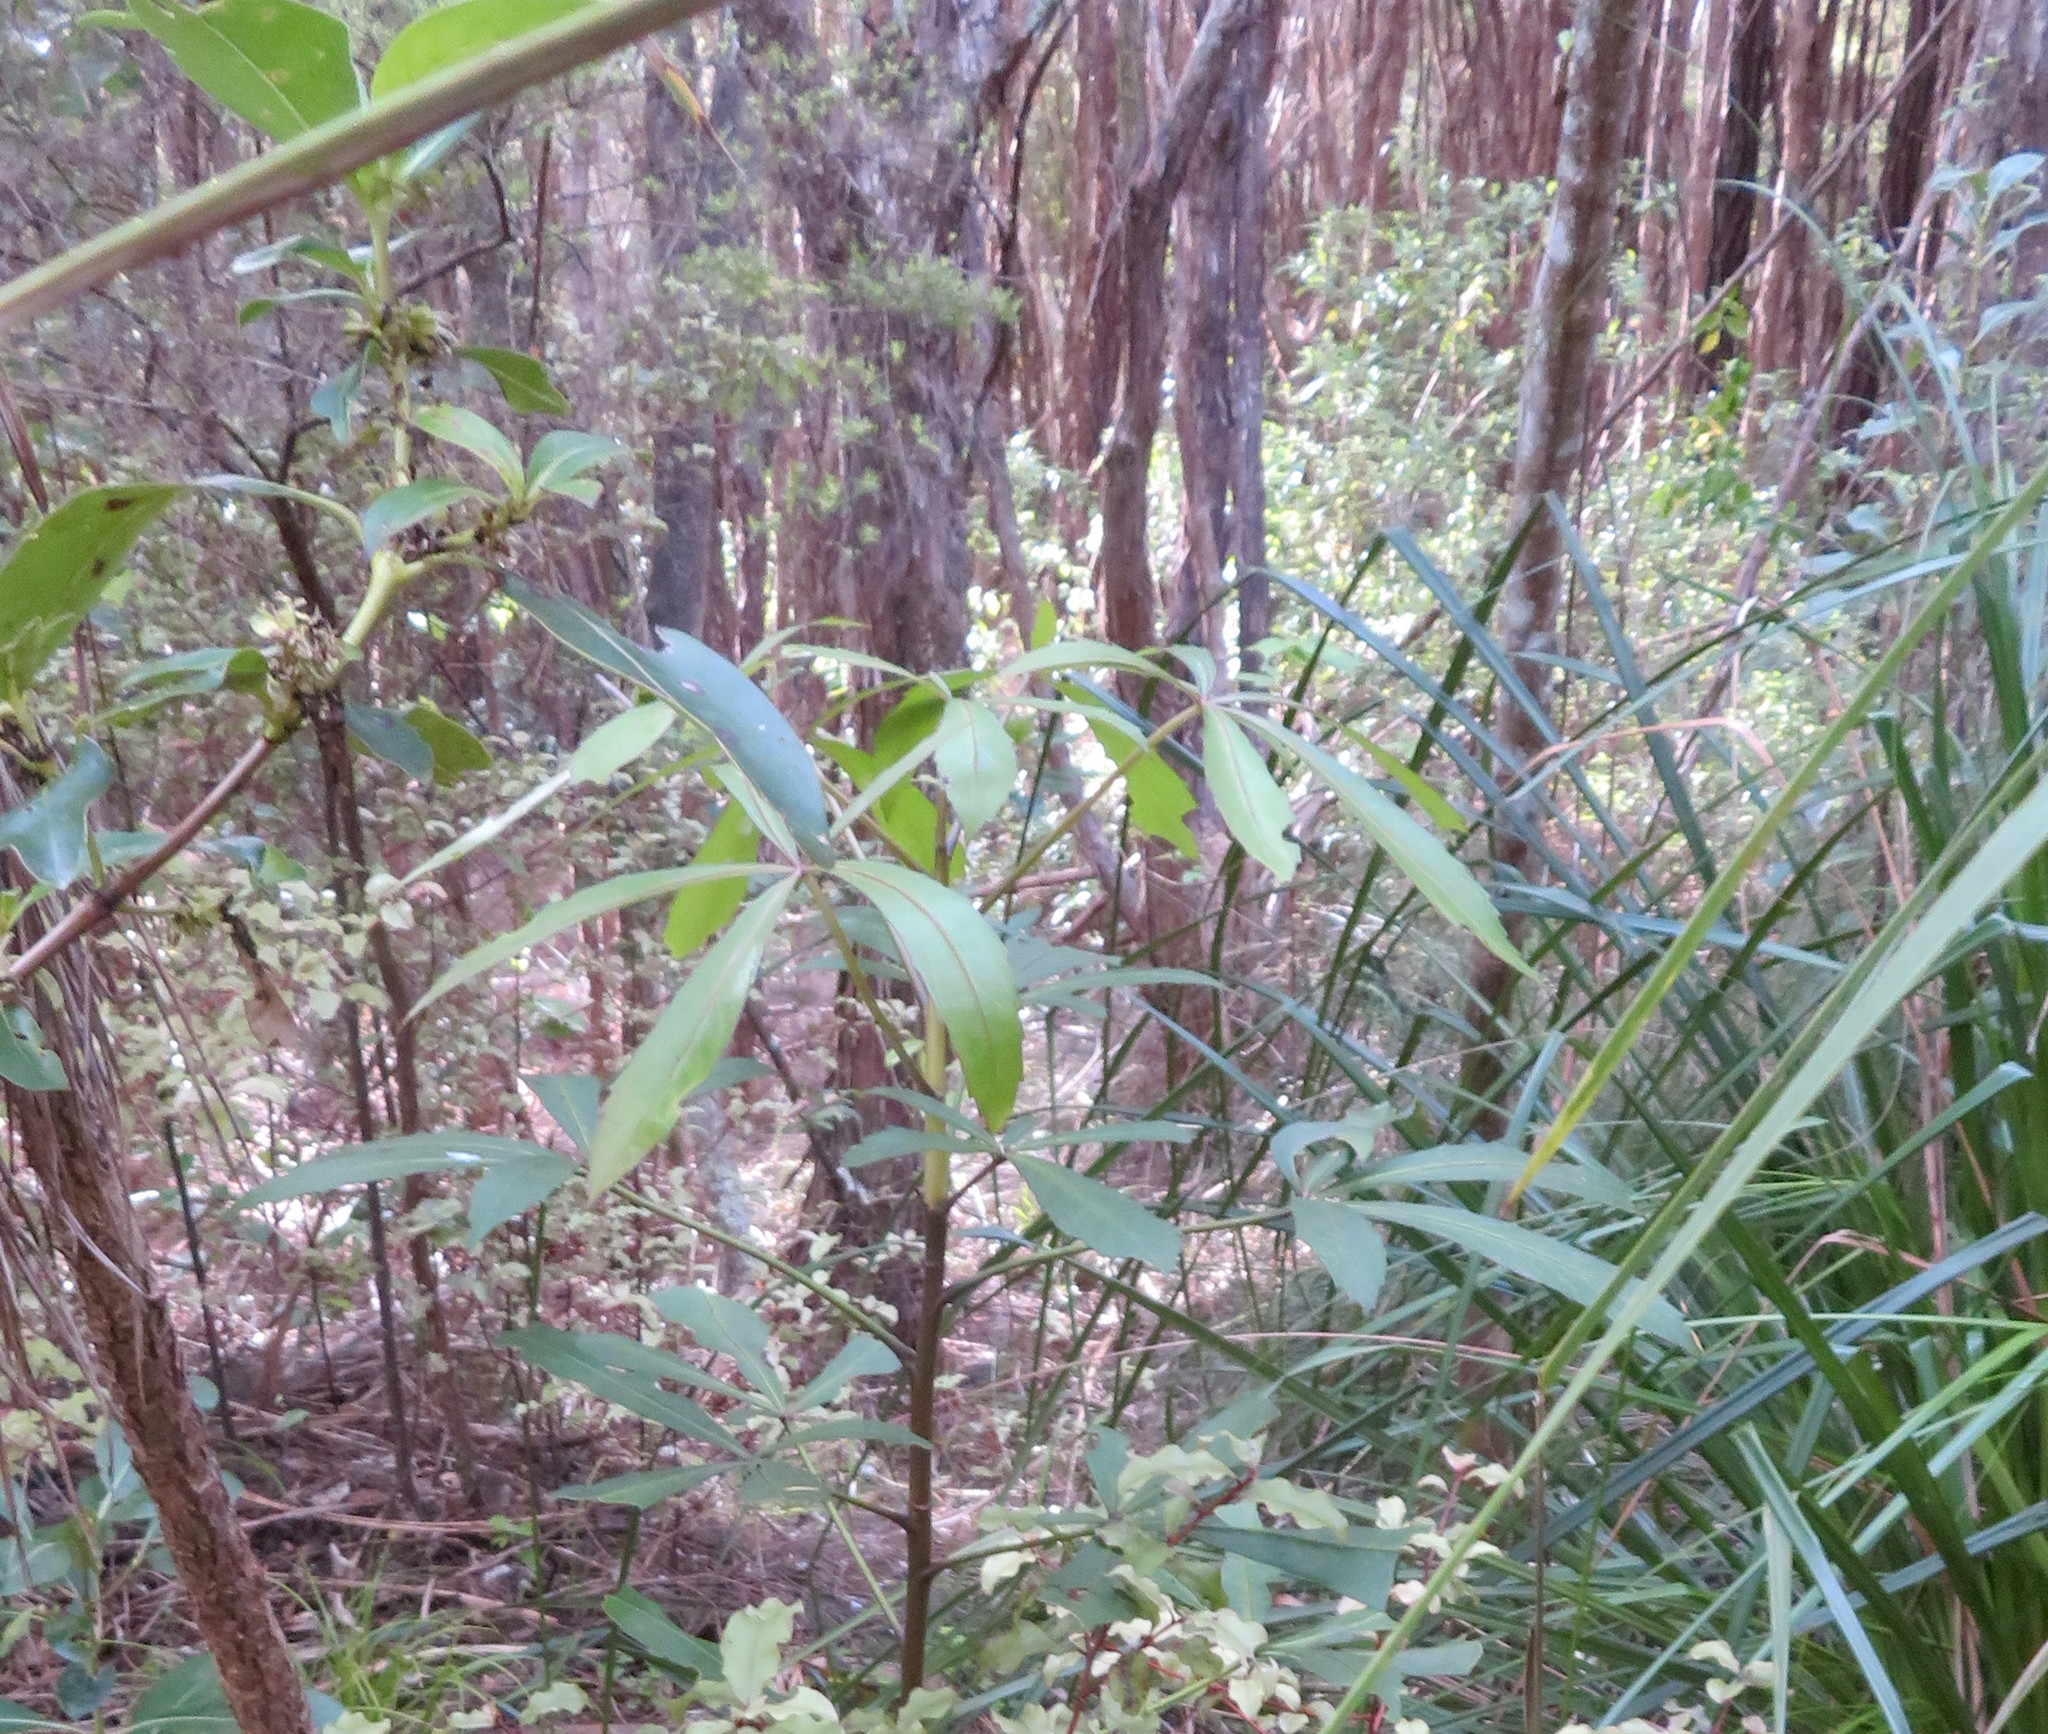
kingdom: Plantae
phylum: Tracheophyta
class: Magnoliopsida
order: Apiales
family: Araliaceae
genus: Pseudopanax
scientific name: Pseudopanax lessonii
